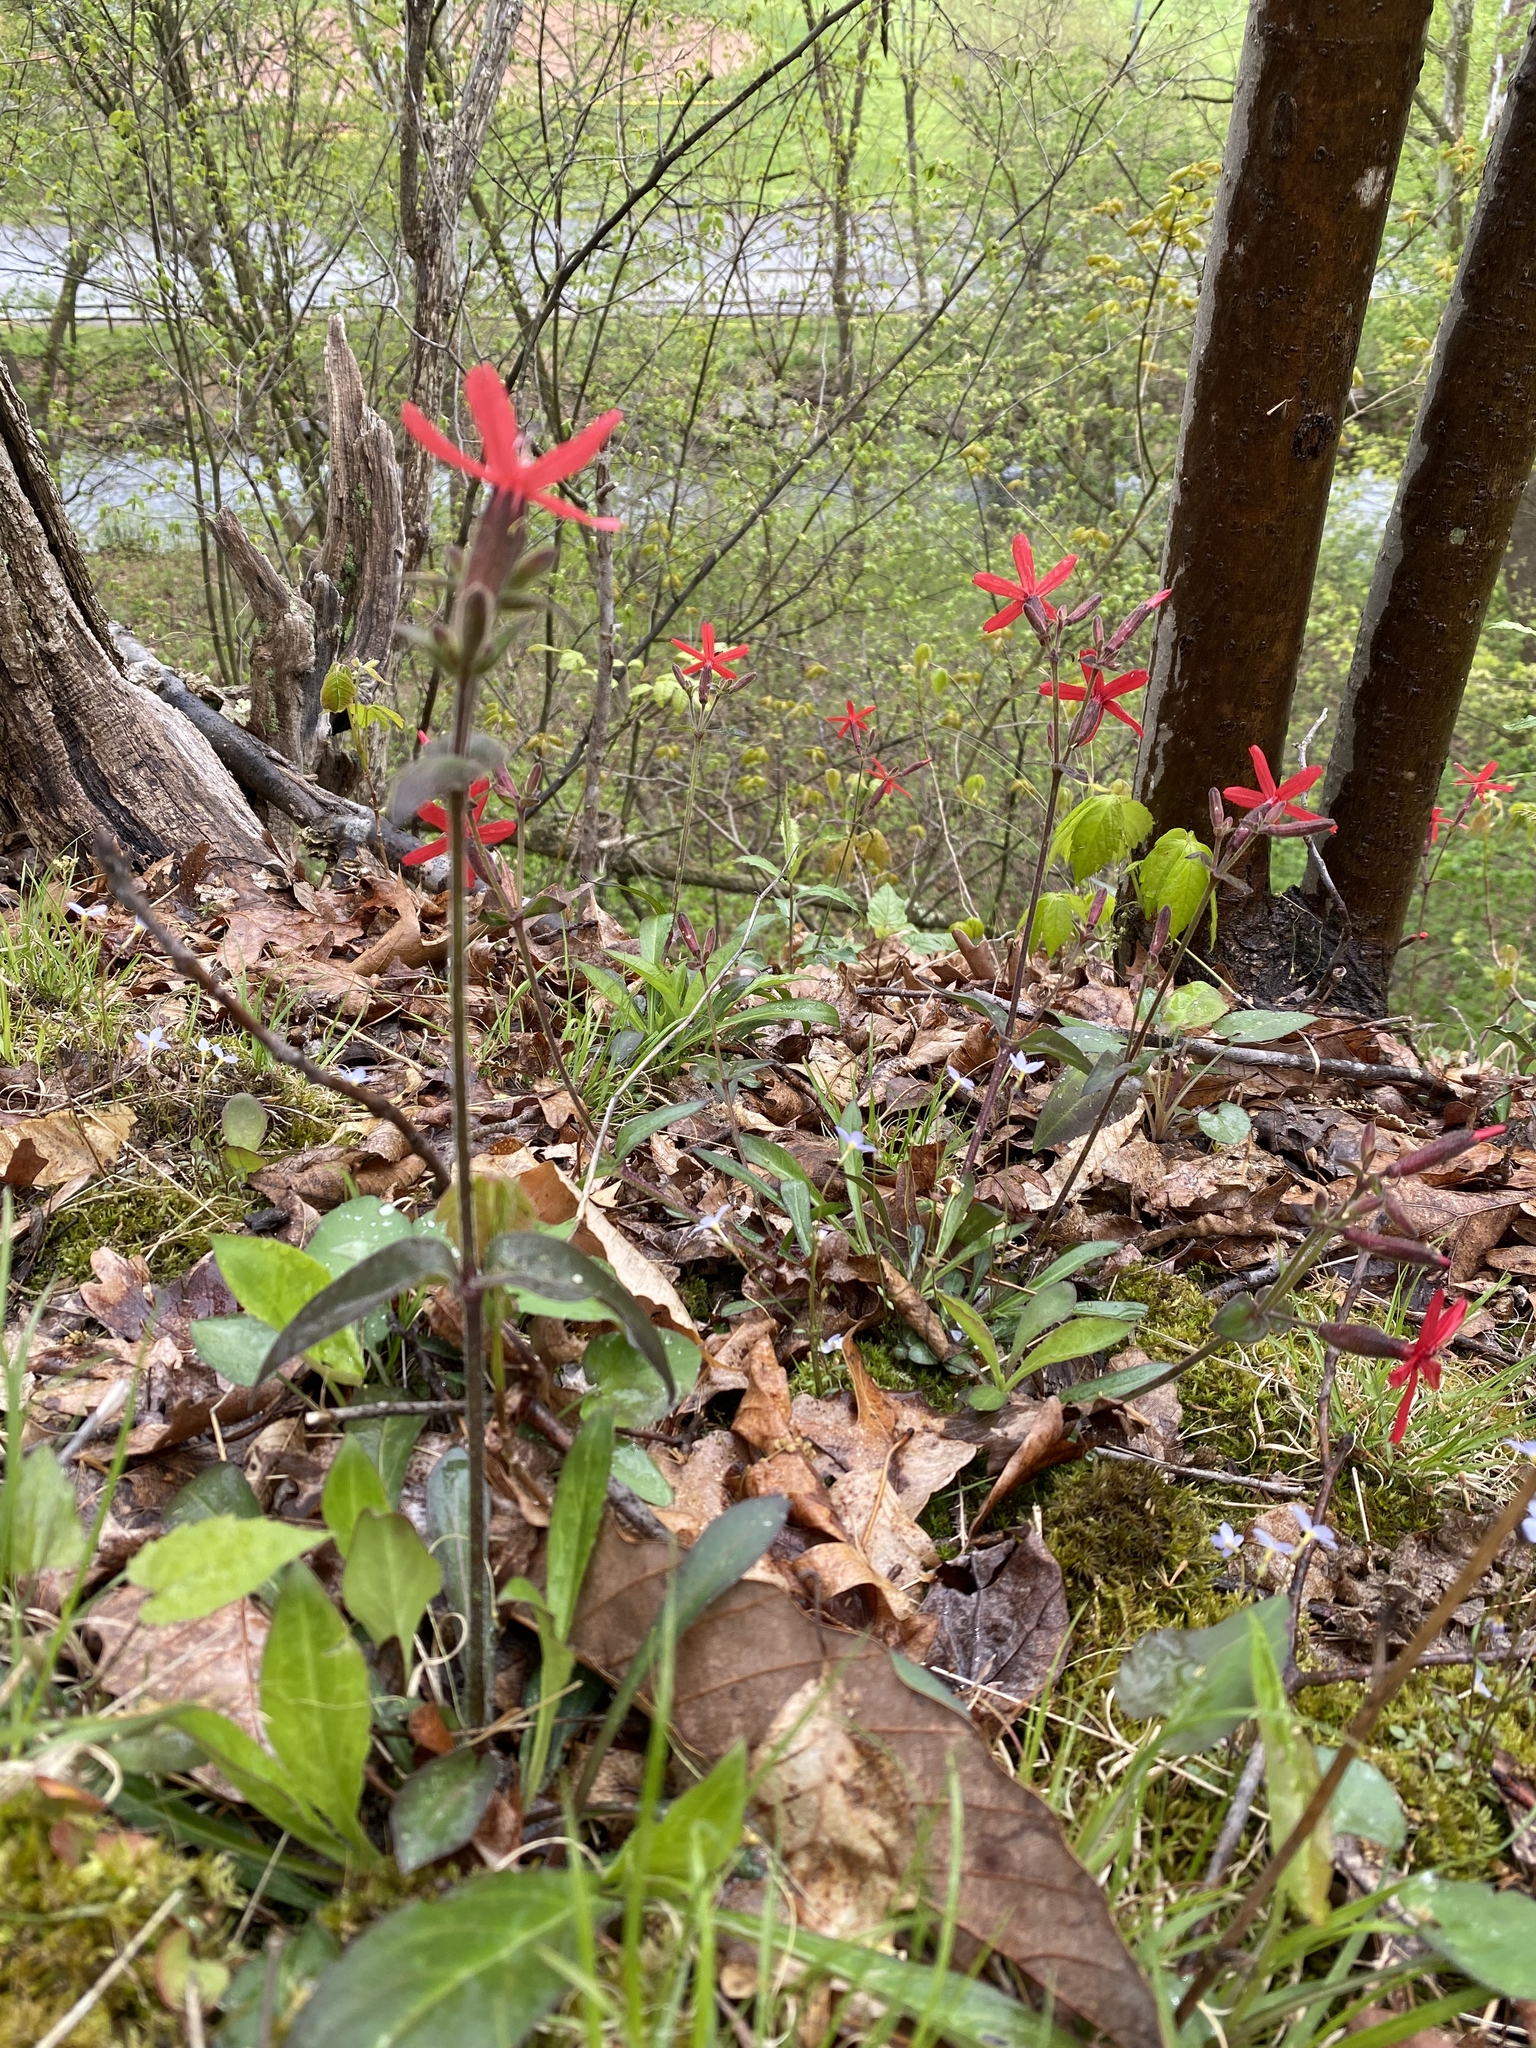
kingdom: Plantae
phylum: Tracheophyta
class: Magnoliopsida
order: Caryophyllales
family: Caryophyllaceae
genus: Silene
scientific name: Silene virginica
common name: Fire-pink
